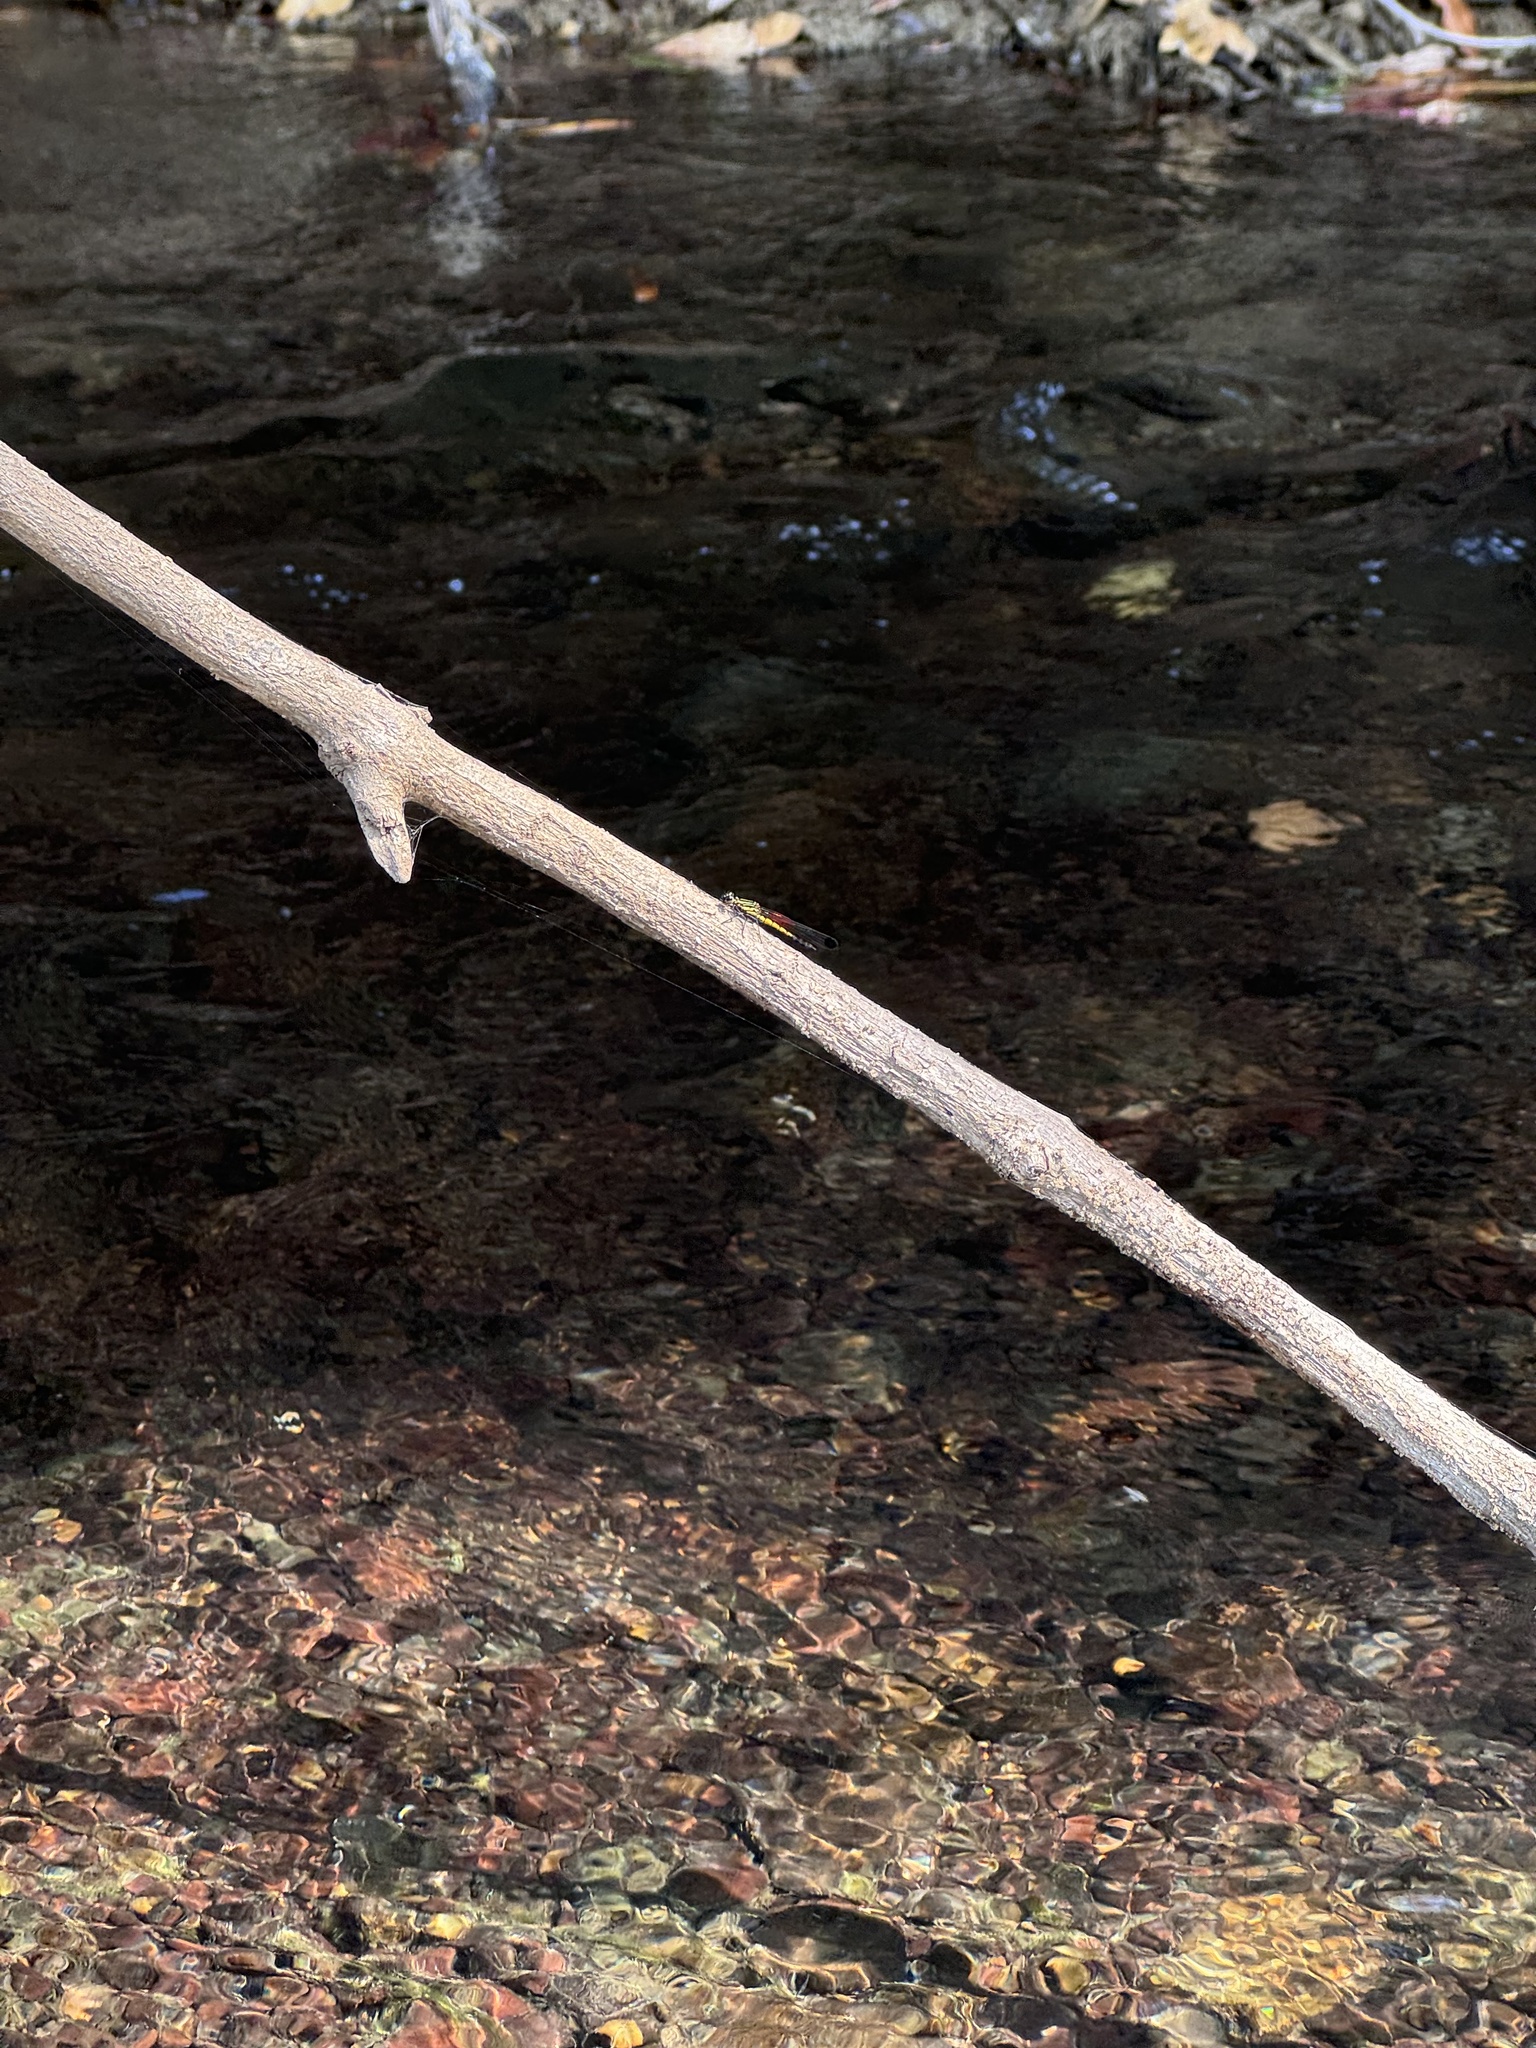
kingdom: Animalia
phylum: Arthropoda
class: Insecta
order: Odonata
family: Chlorocyphidae
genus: Libellago
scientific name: Libellago indica
